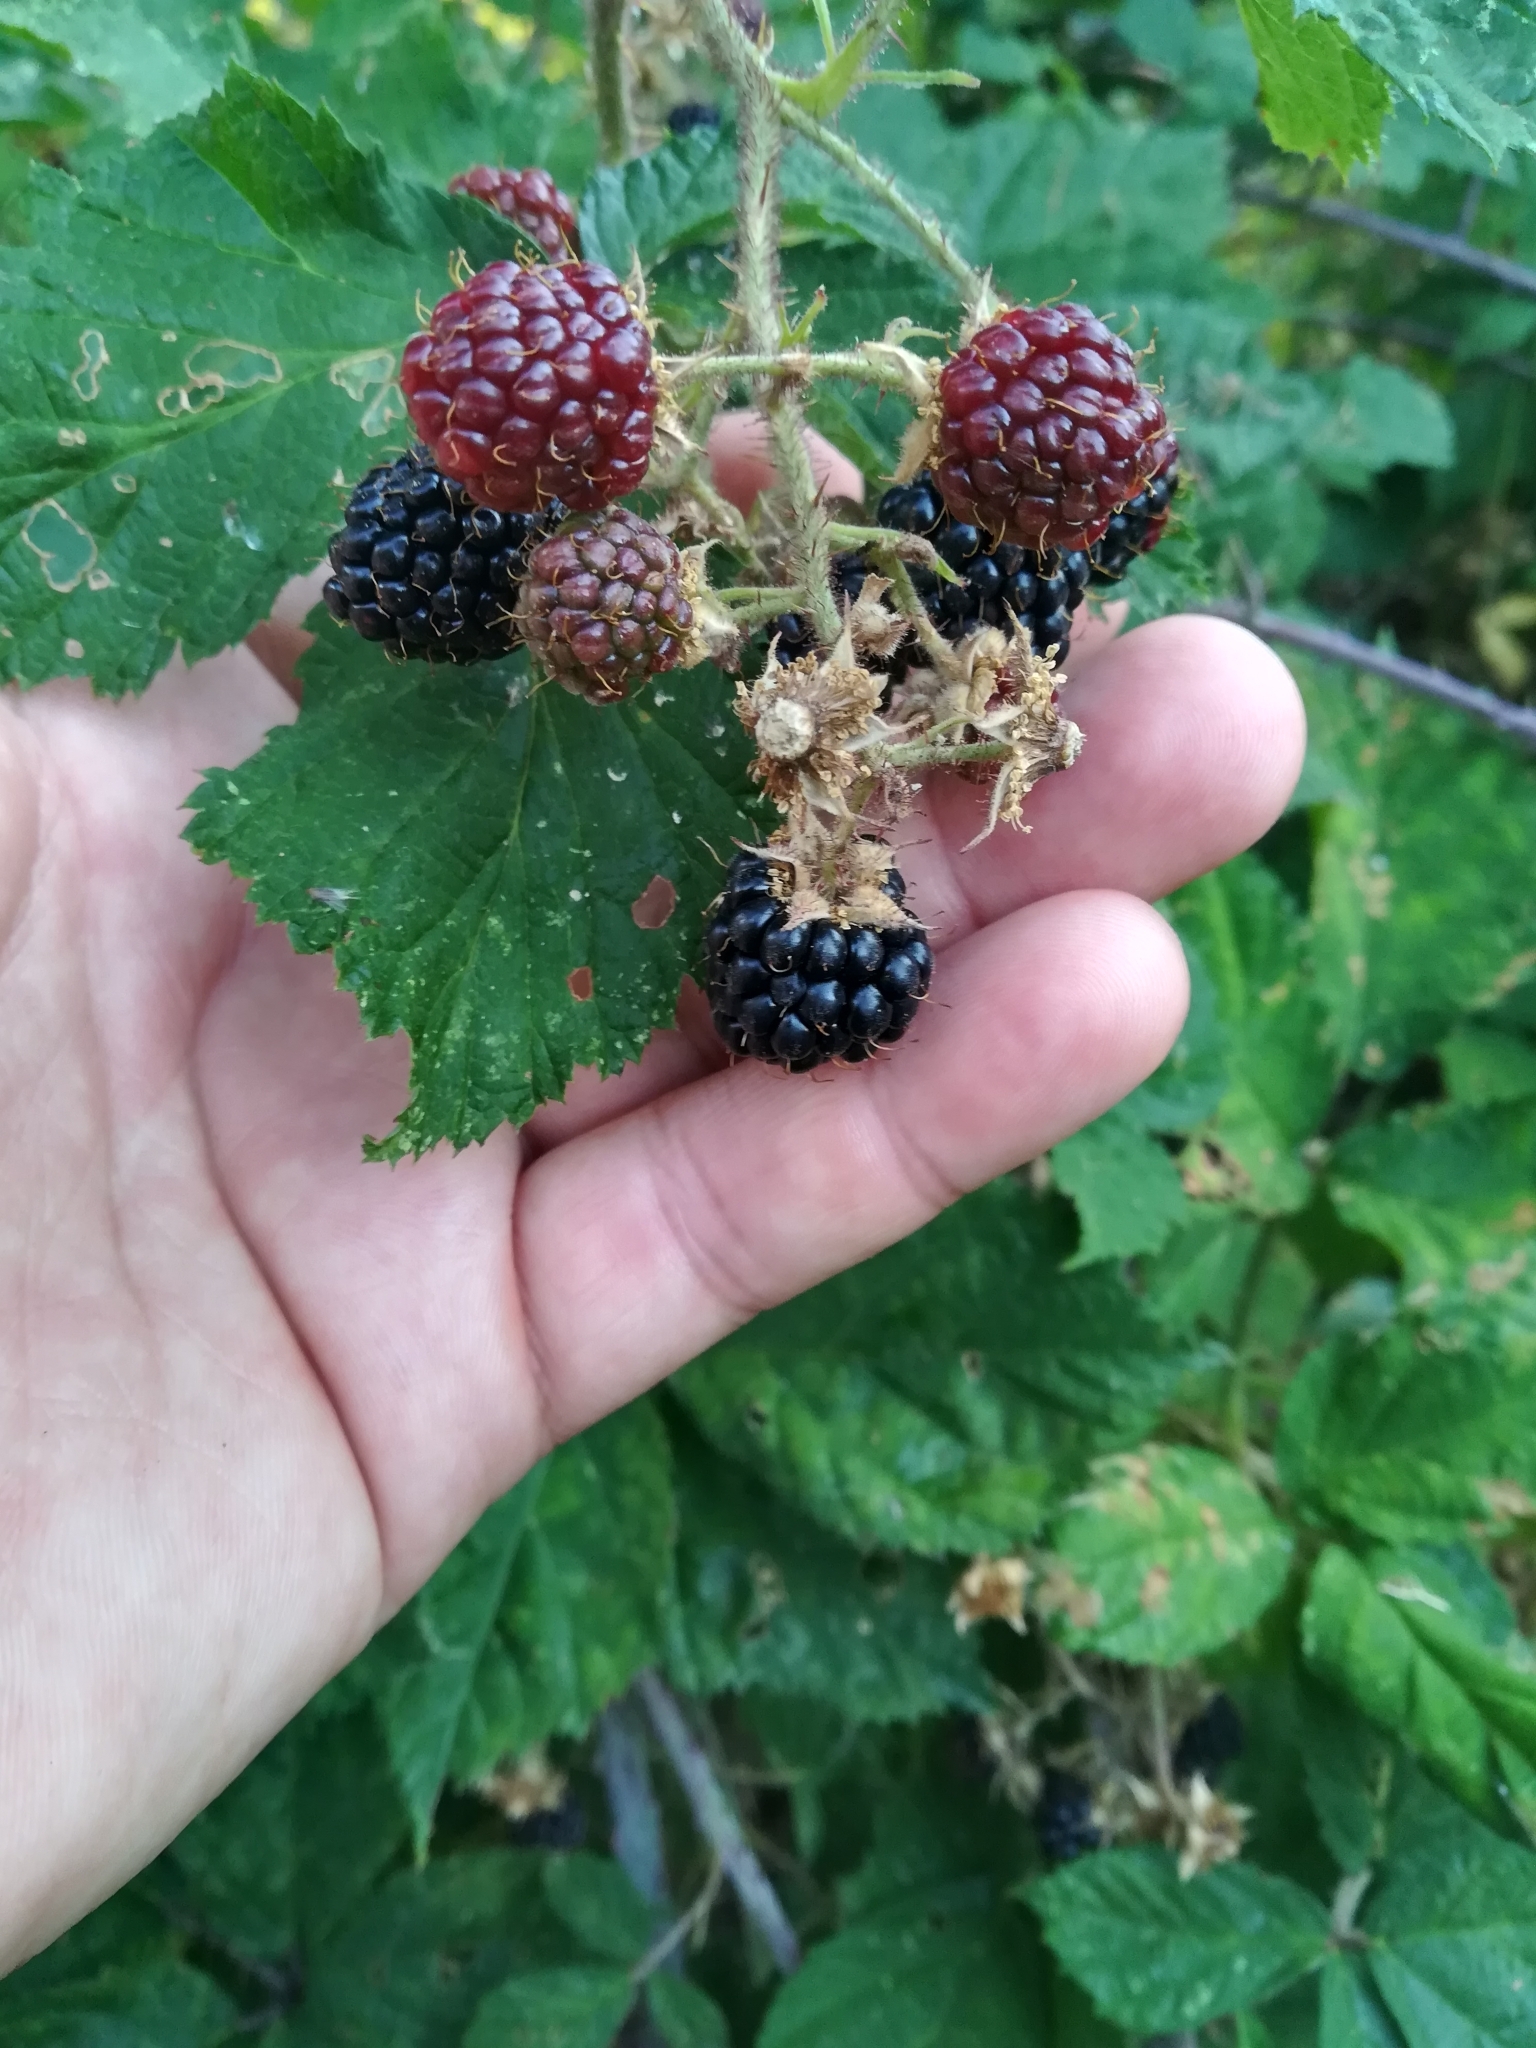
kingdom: Plantae
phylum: Tracheophyta
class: Magnoliopsida
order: Rosales
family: Rosaceae
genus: Rubus
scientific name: Rubus ulmifolius
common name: Elmleaf blackberry
